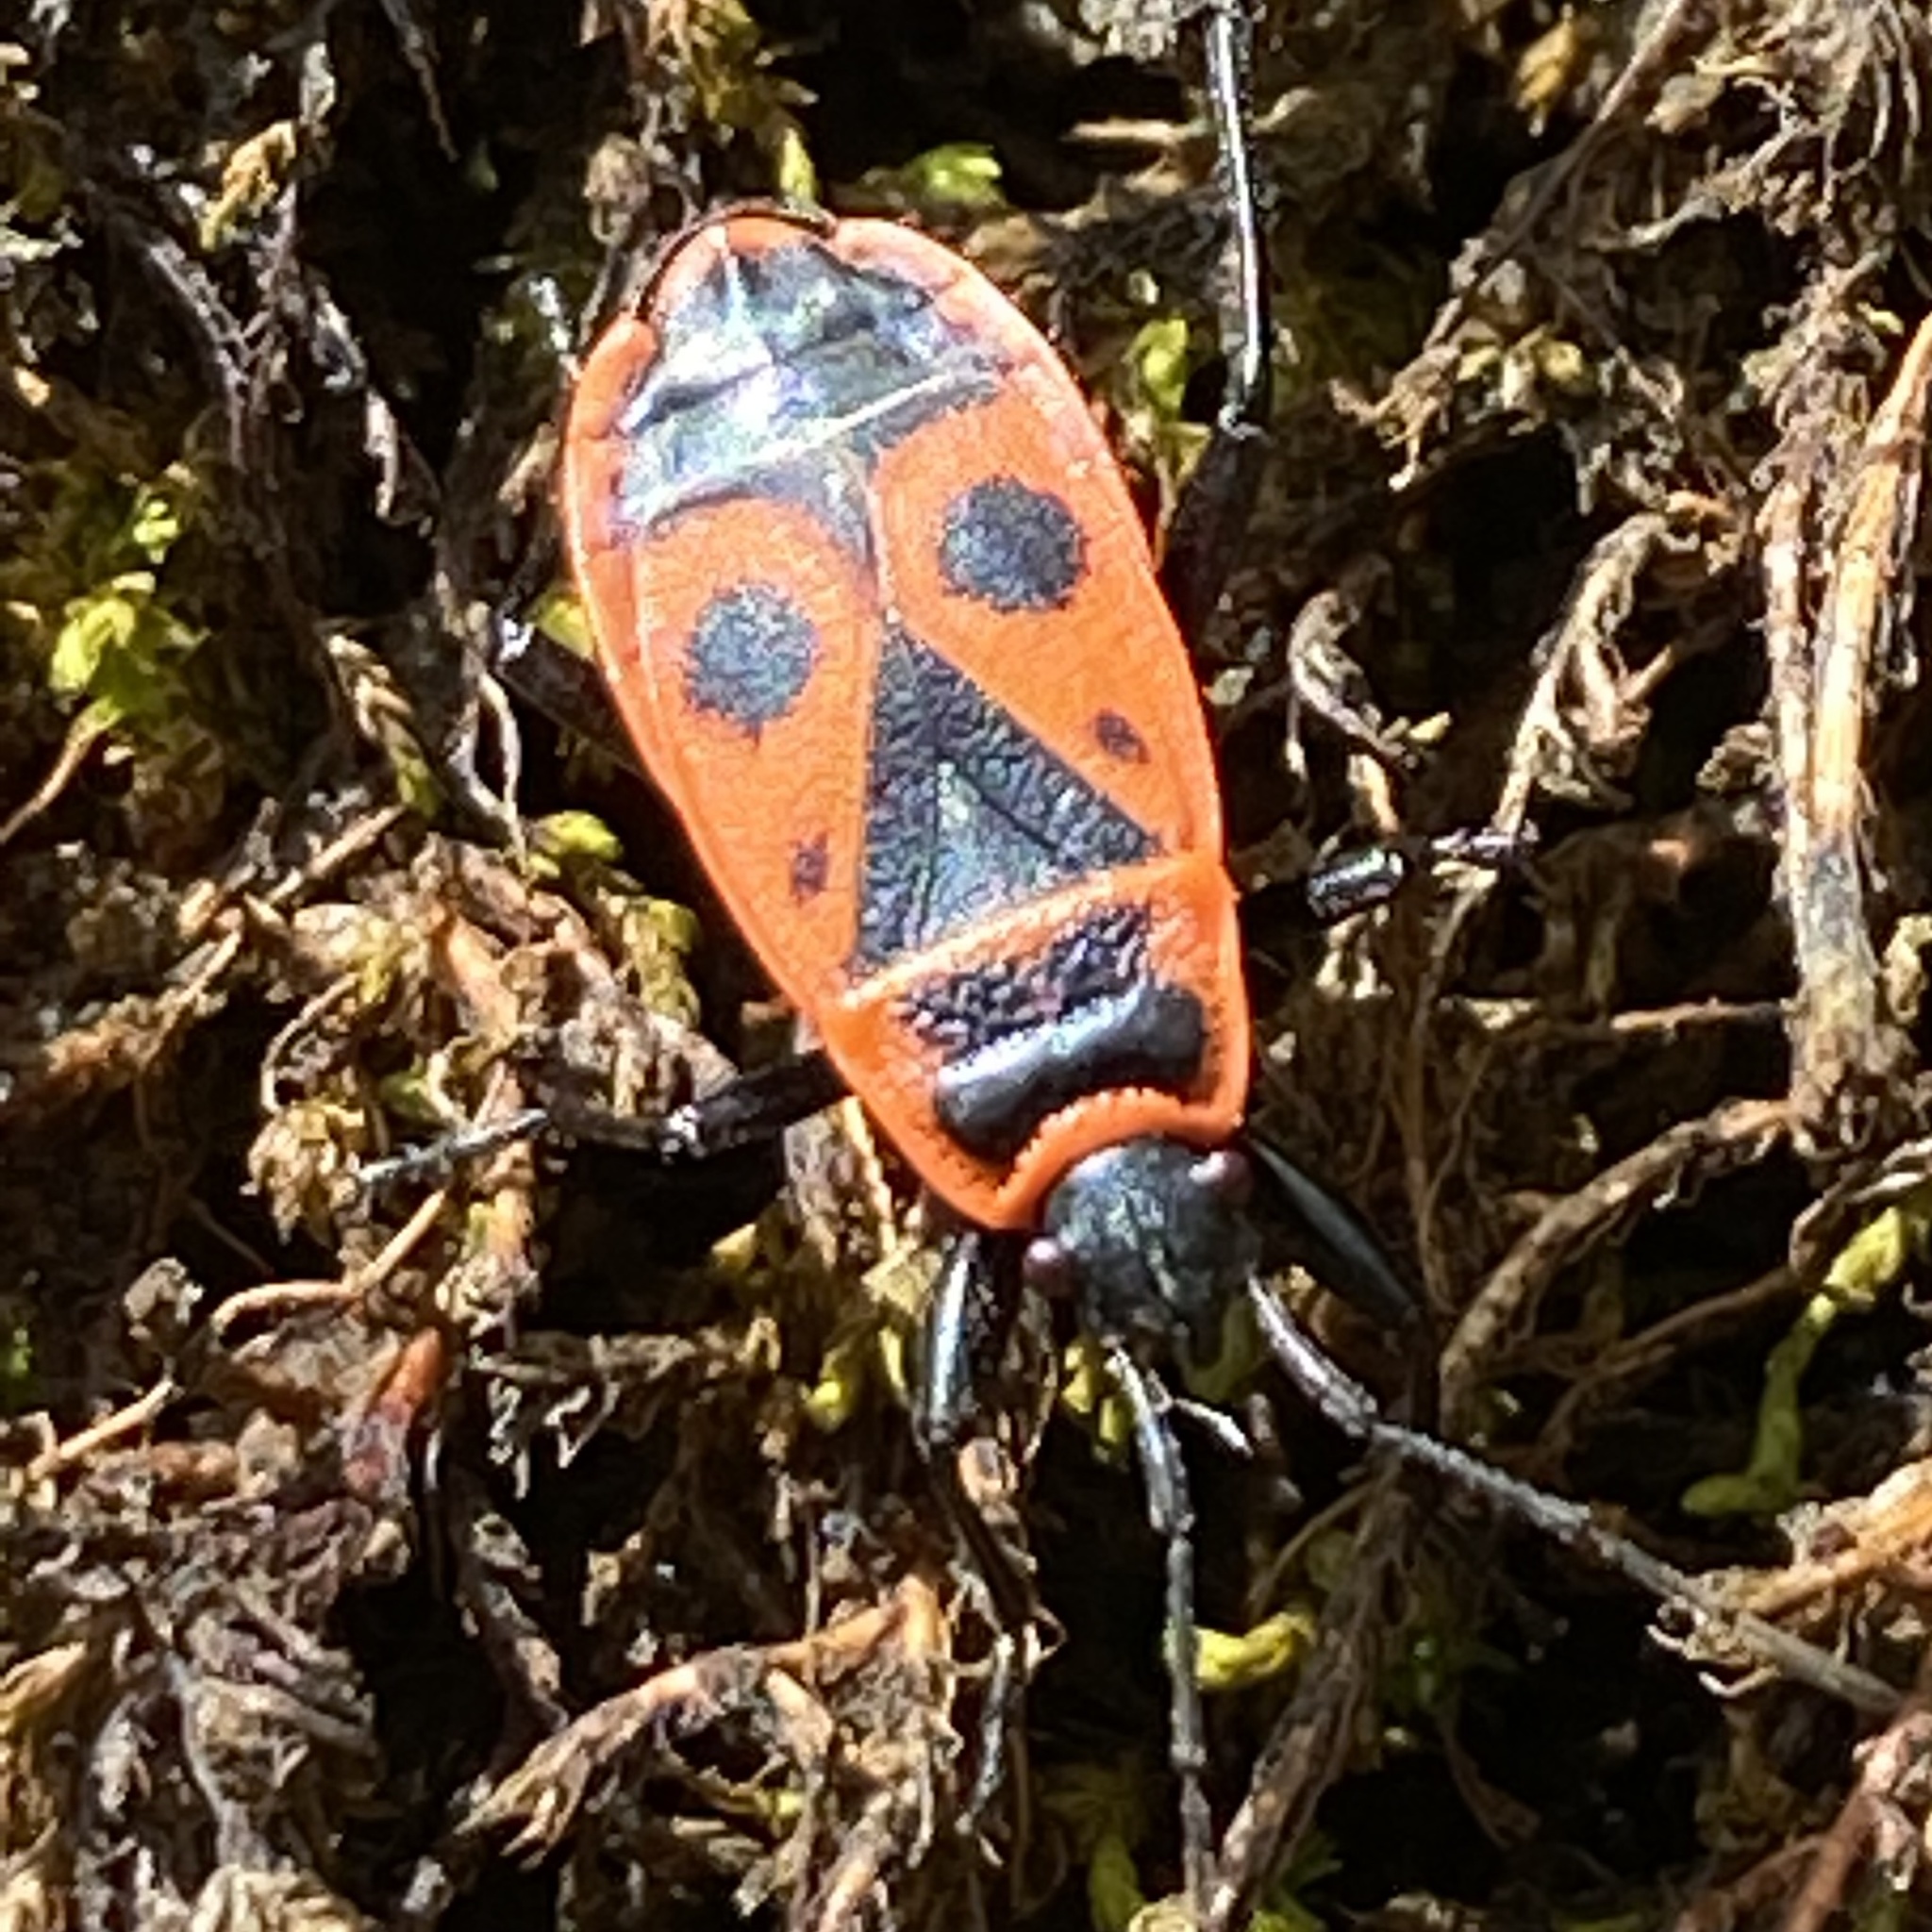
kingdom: Animalia
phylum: Arthropoda
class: Insecta
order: Hemiptera
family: Pyrrhocoridae
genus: Pyrrhocoris
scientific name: Pyrrhocoris apterus
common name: Firebug
